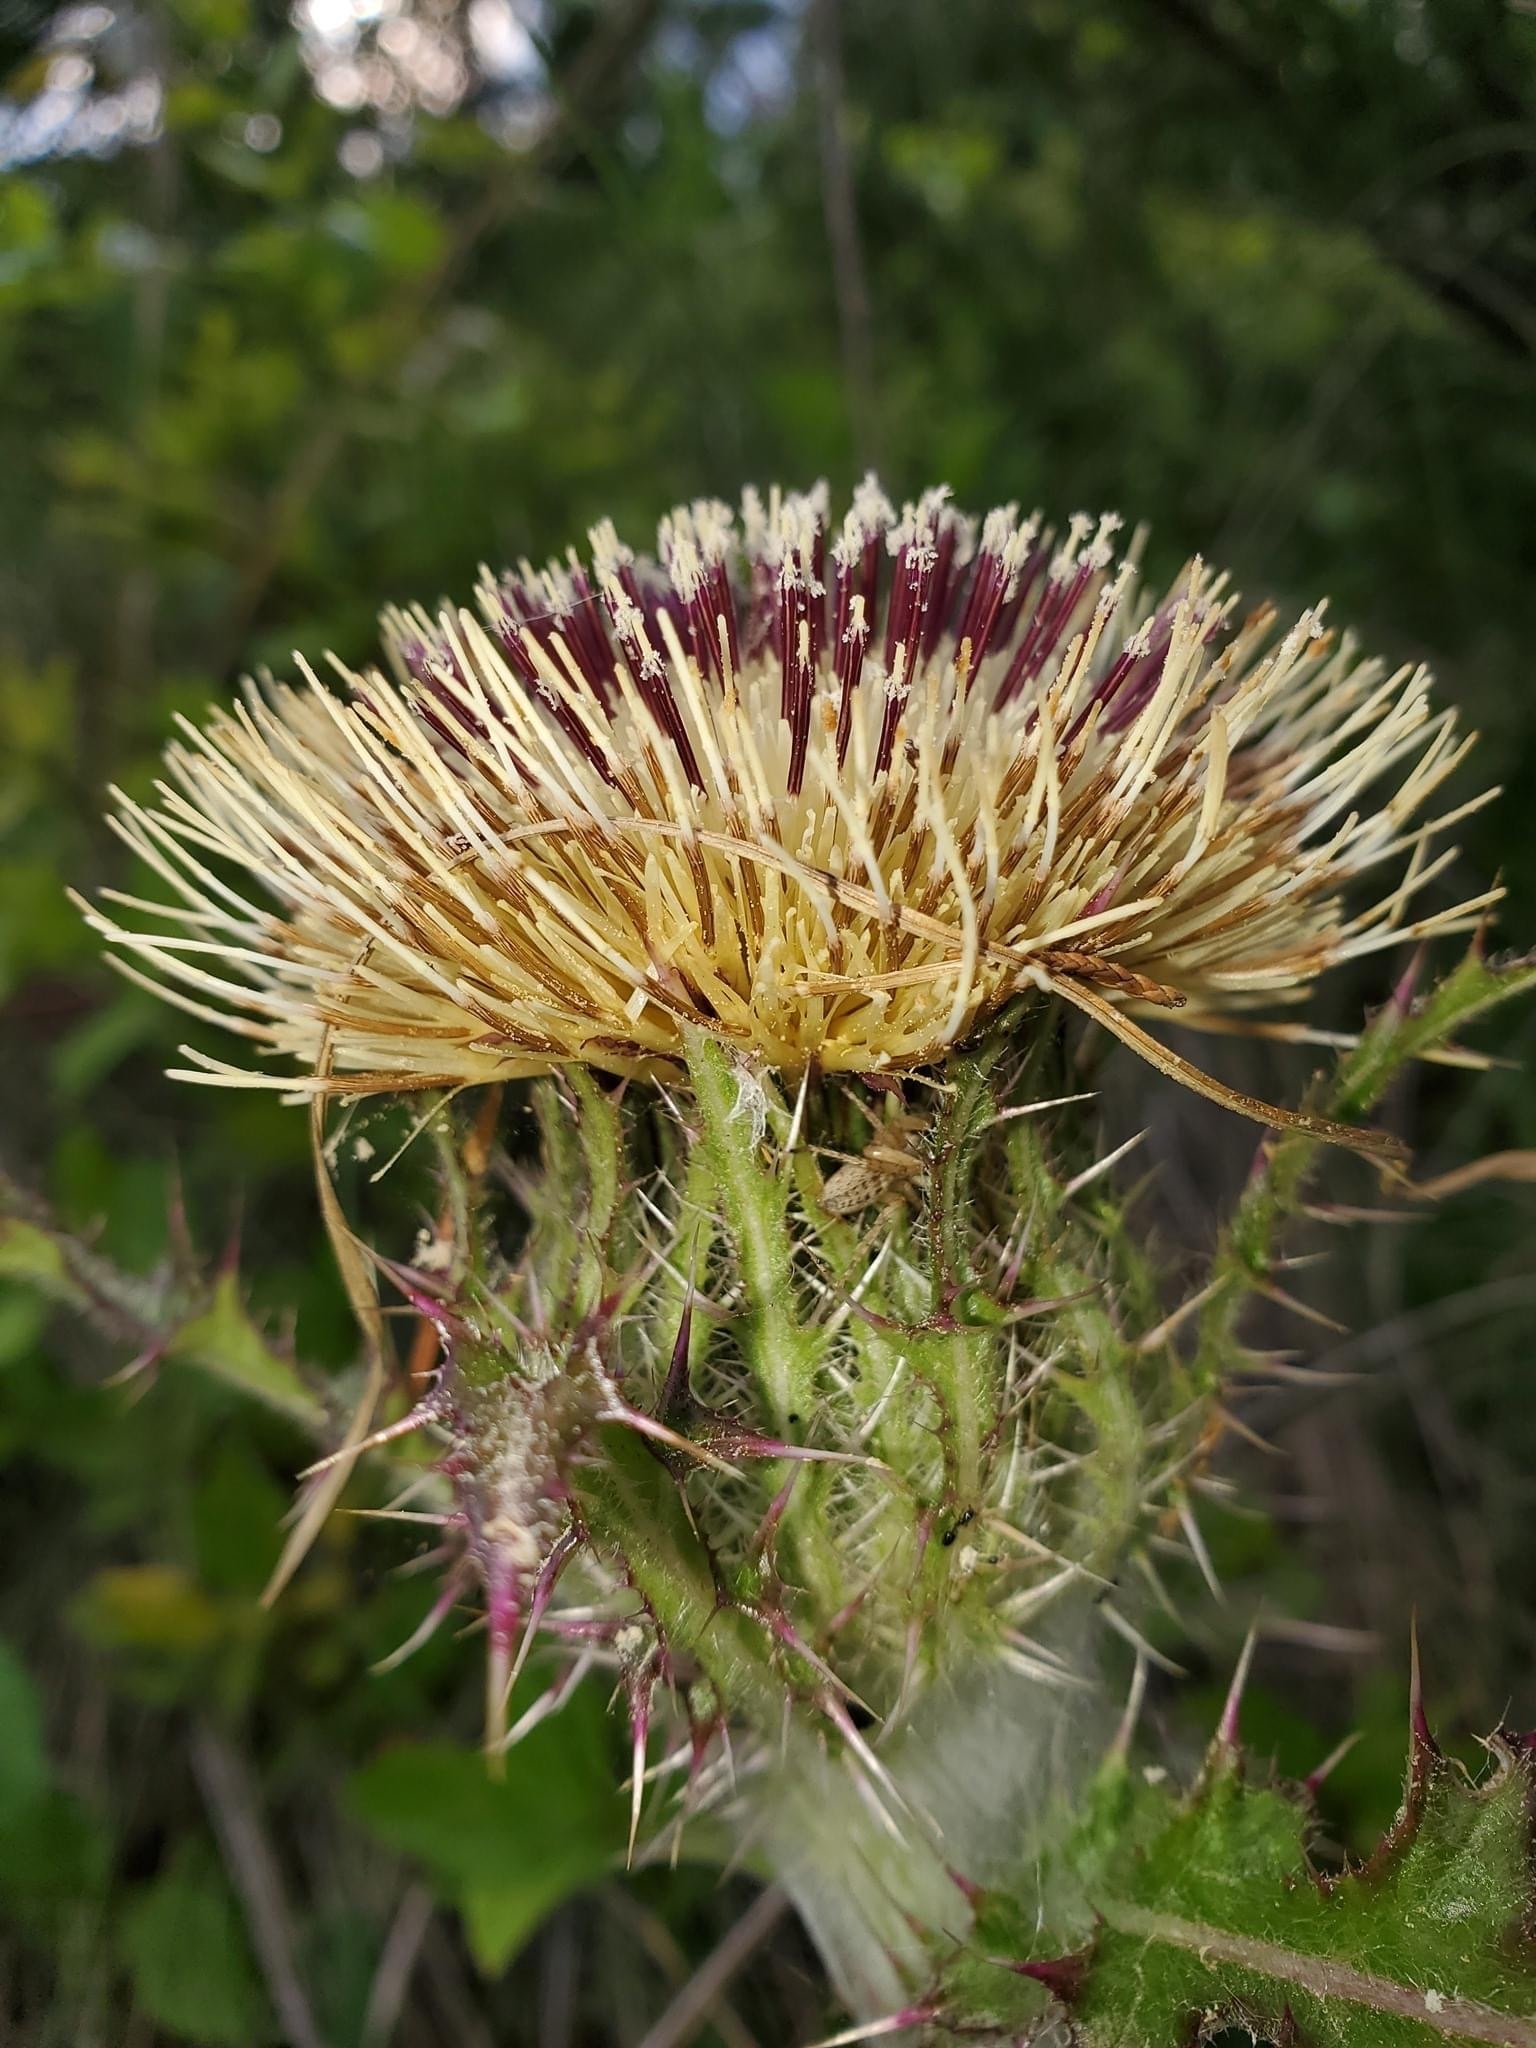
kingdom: Plantae
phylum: Tracheophyta
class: Magnoliopsida
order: Asterales
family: Asteraceae
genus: Cirsium
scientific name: Cirsium horridulum
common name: Bristly thistle
